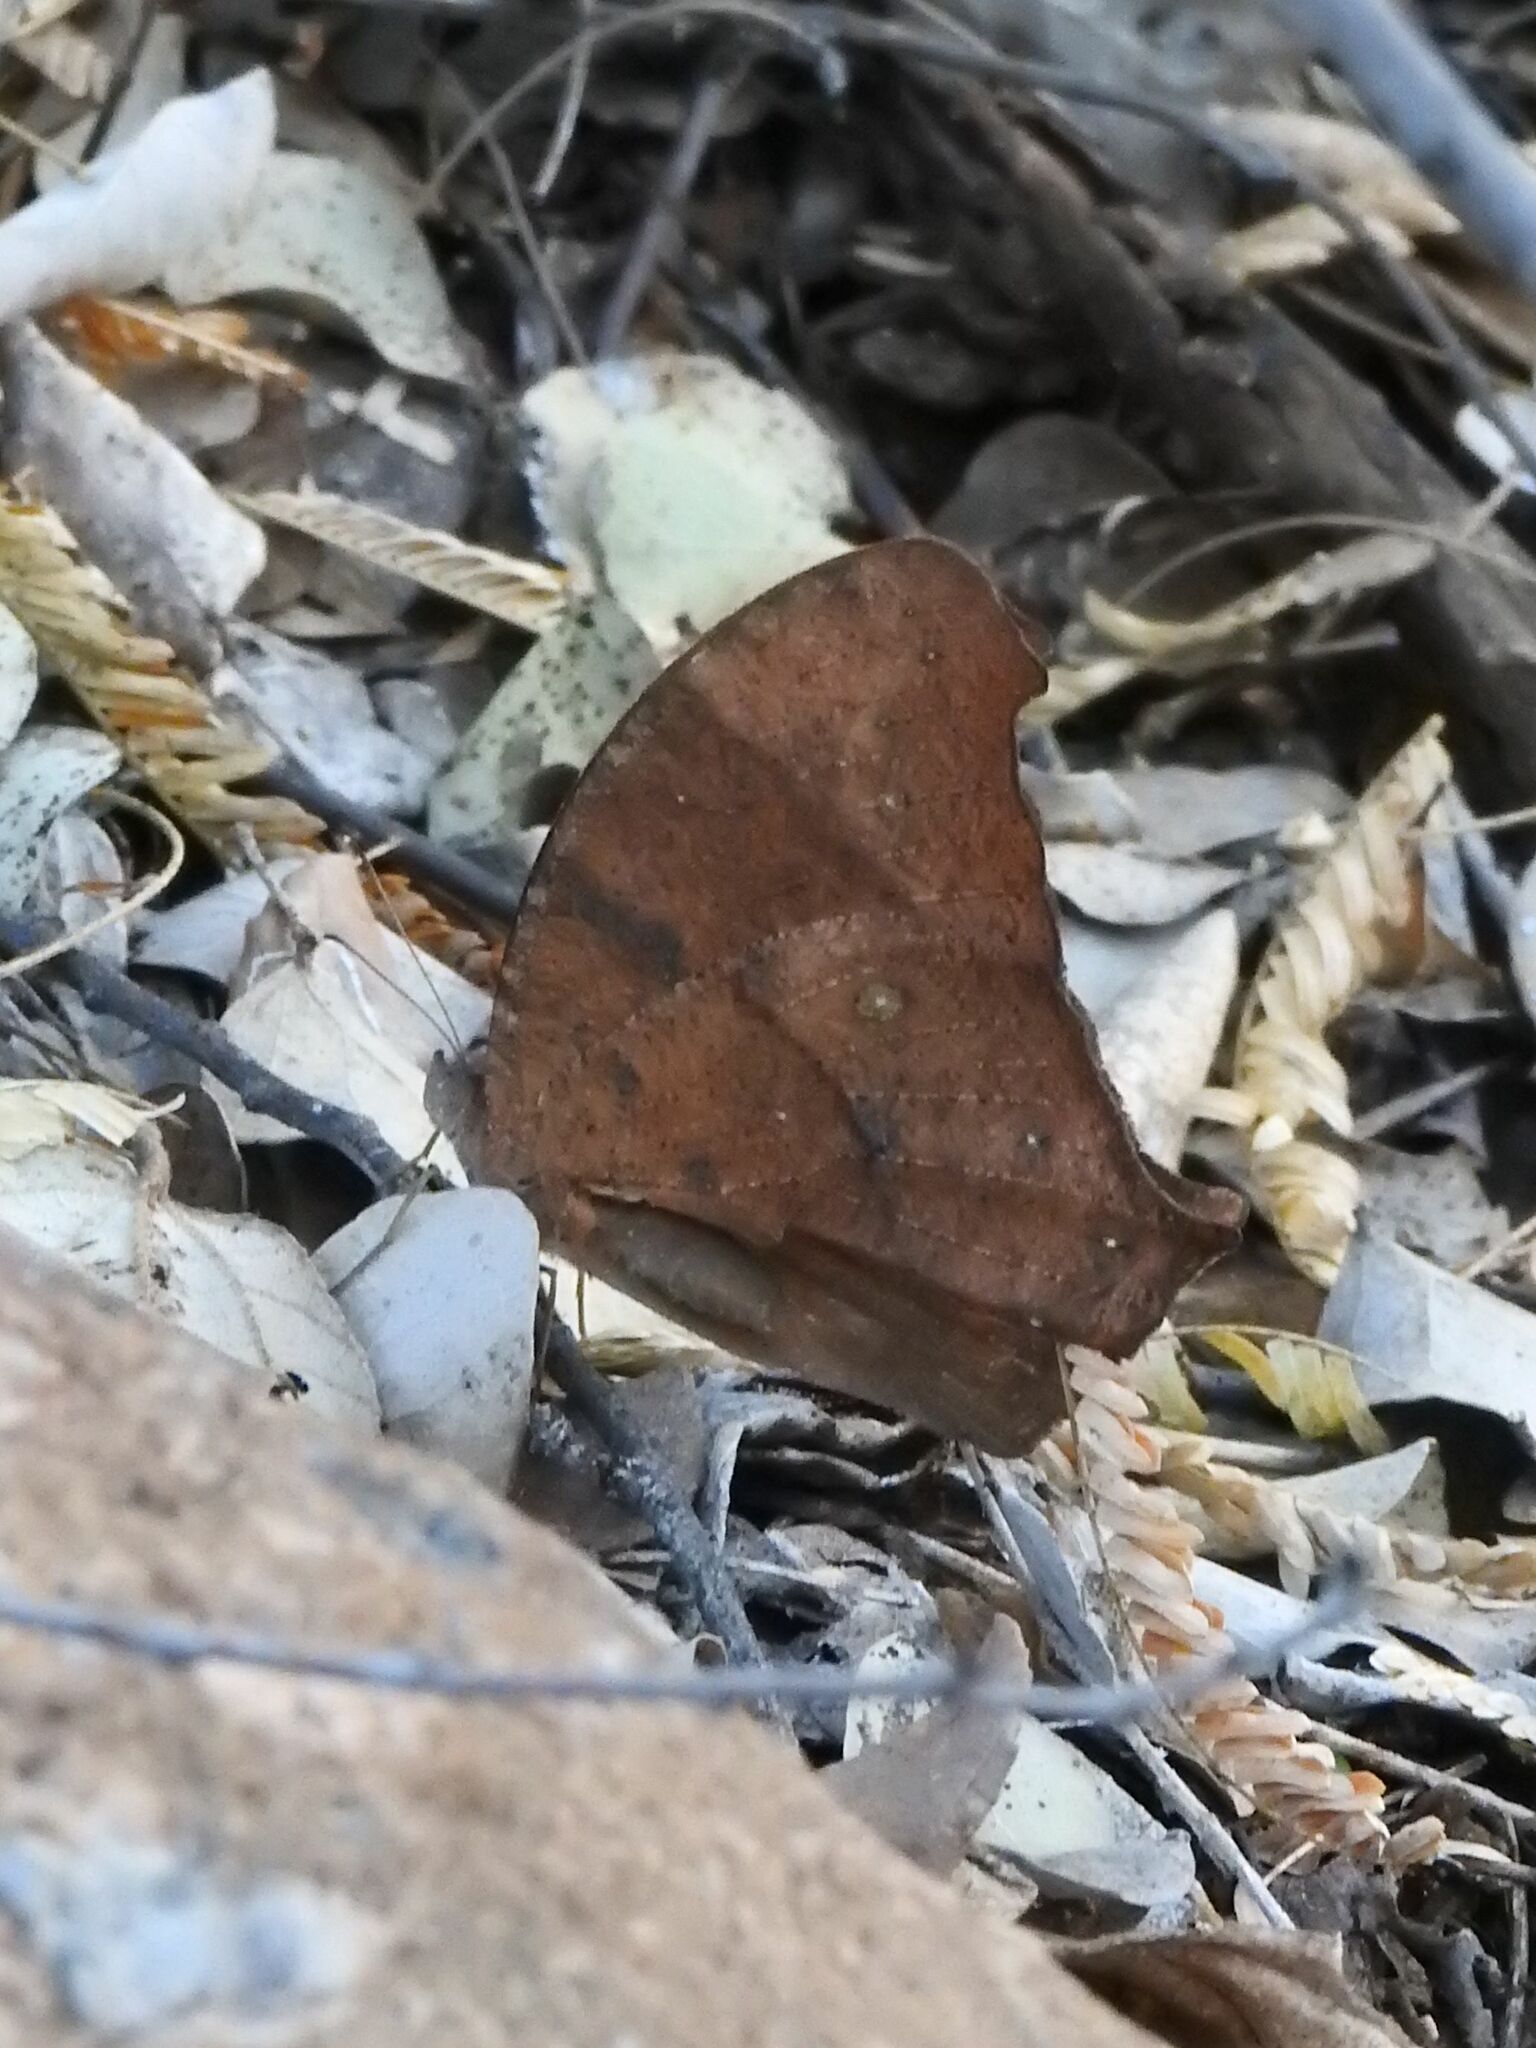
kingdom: Animalia
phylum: Arthropoda
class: Insecta
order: Lepidoptera
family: Nymphalidae
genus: Melanitis
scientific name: Melanitis leda
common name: Twilight brown
